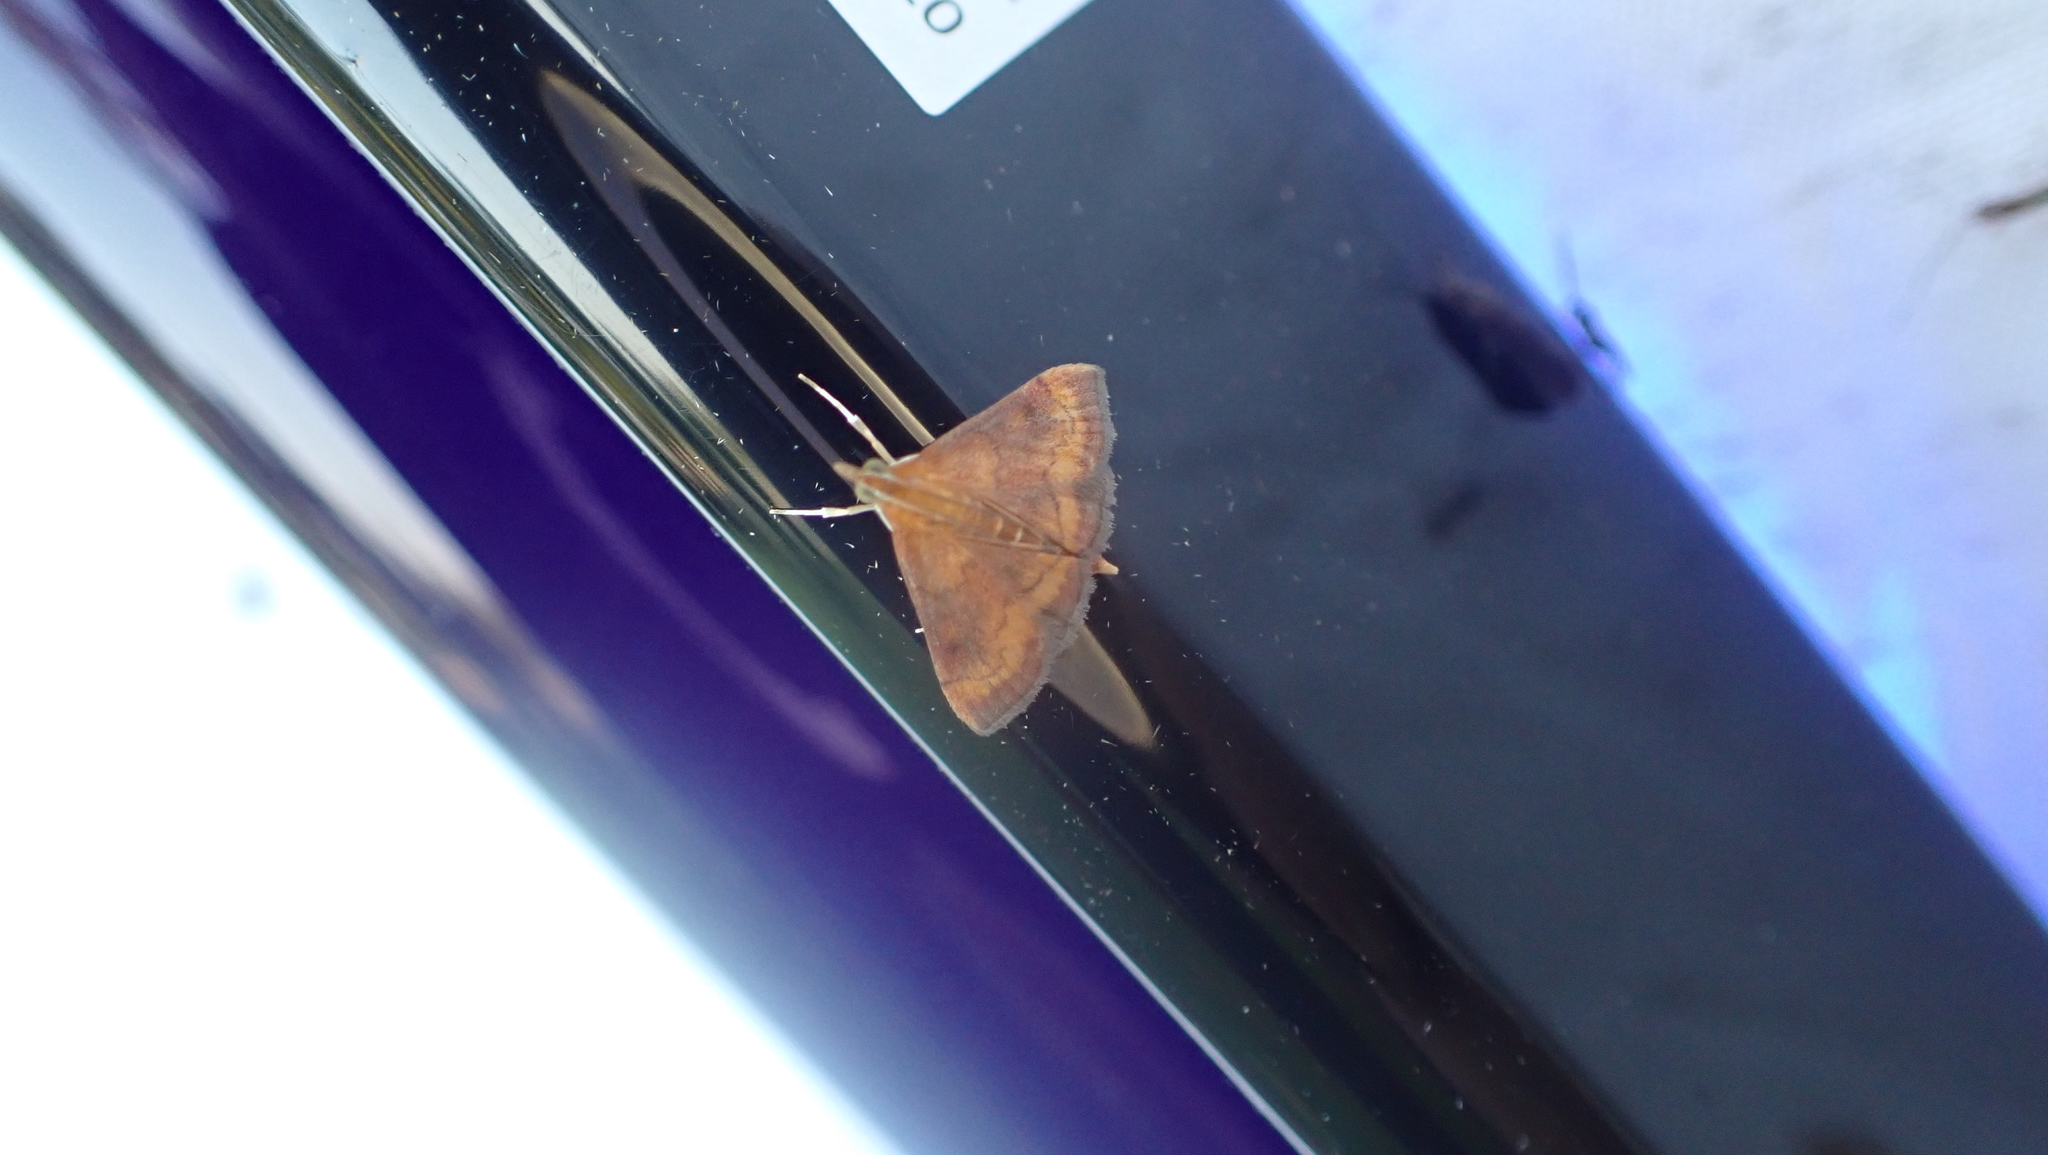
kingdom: Animalia
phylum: Arthropoda
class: Insecta
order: Lepidoptera
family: Crambidae
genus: Pyrausta
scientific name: Pyrausta rubricalis
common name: Variable reddish pyrausta
